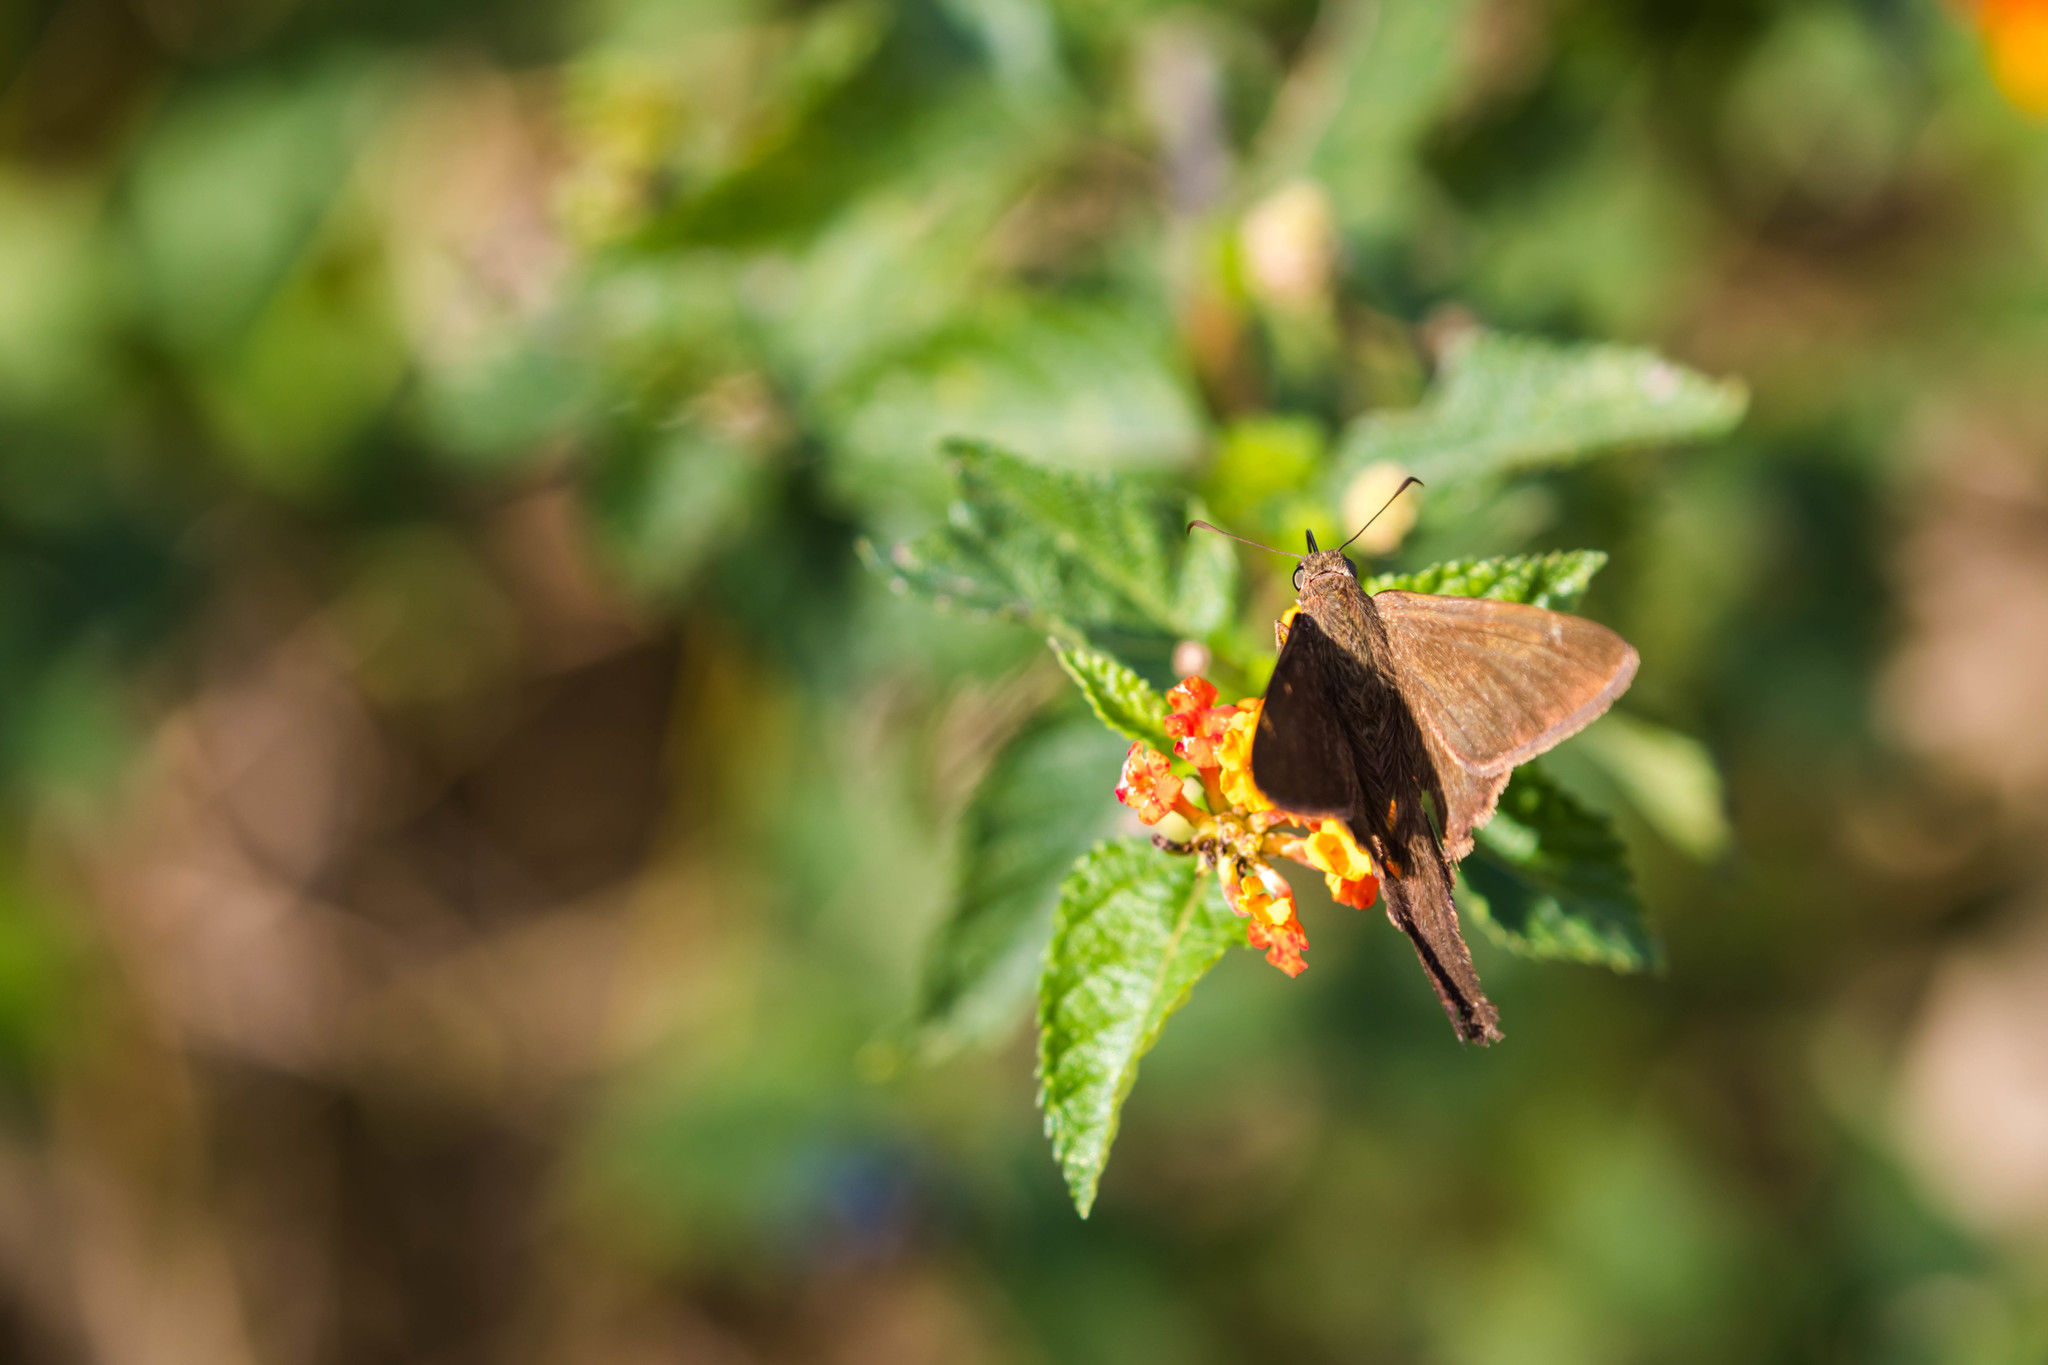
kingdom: Animalia
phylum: Arthropoda
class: Insecta
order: Lepidoptera
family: Hesperiidae
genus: Urbanus
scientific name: Urbanus procne
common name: Brown longtail
